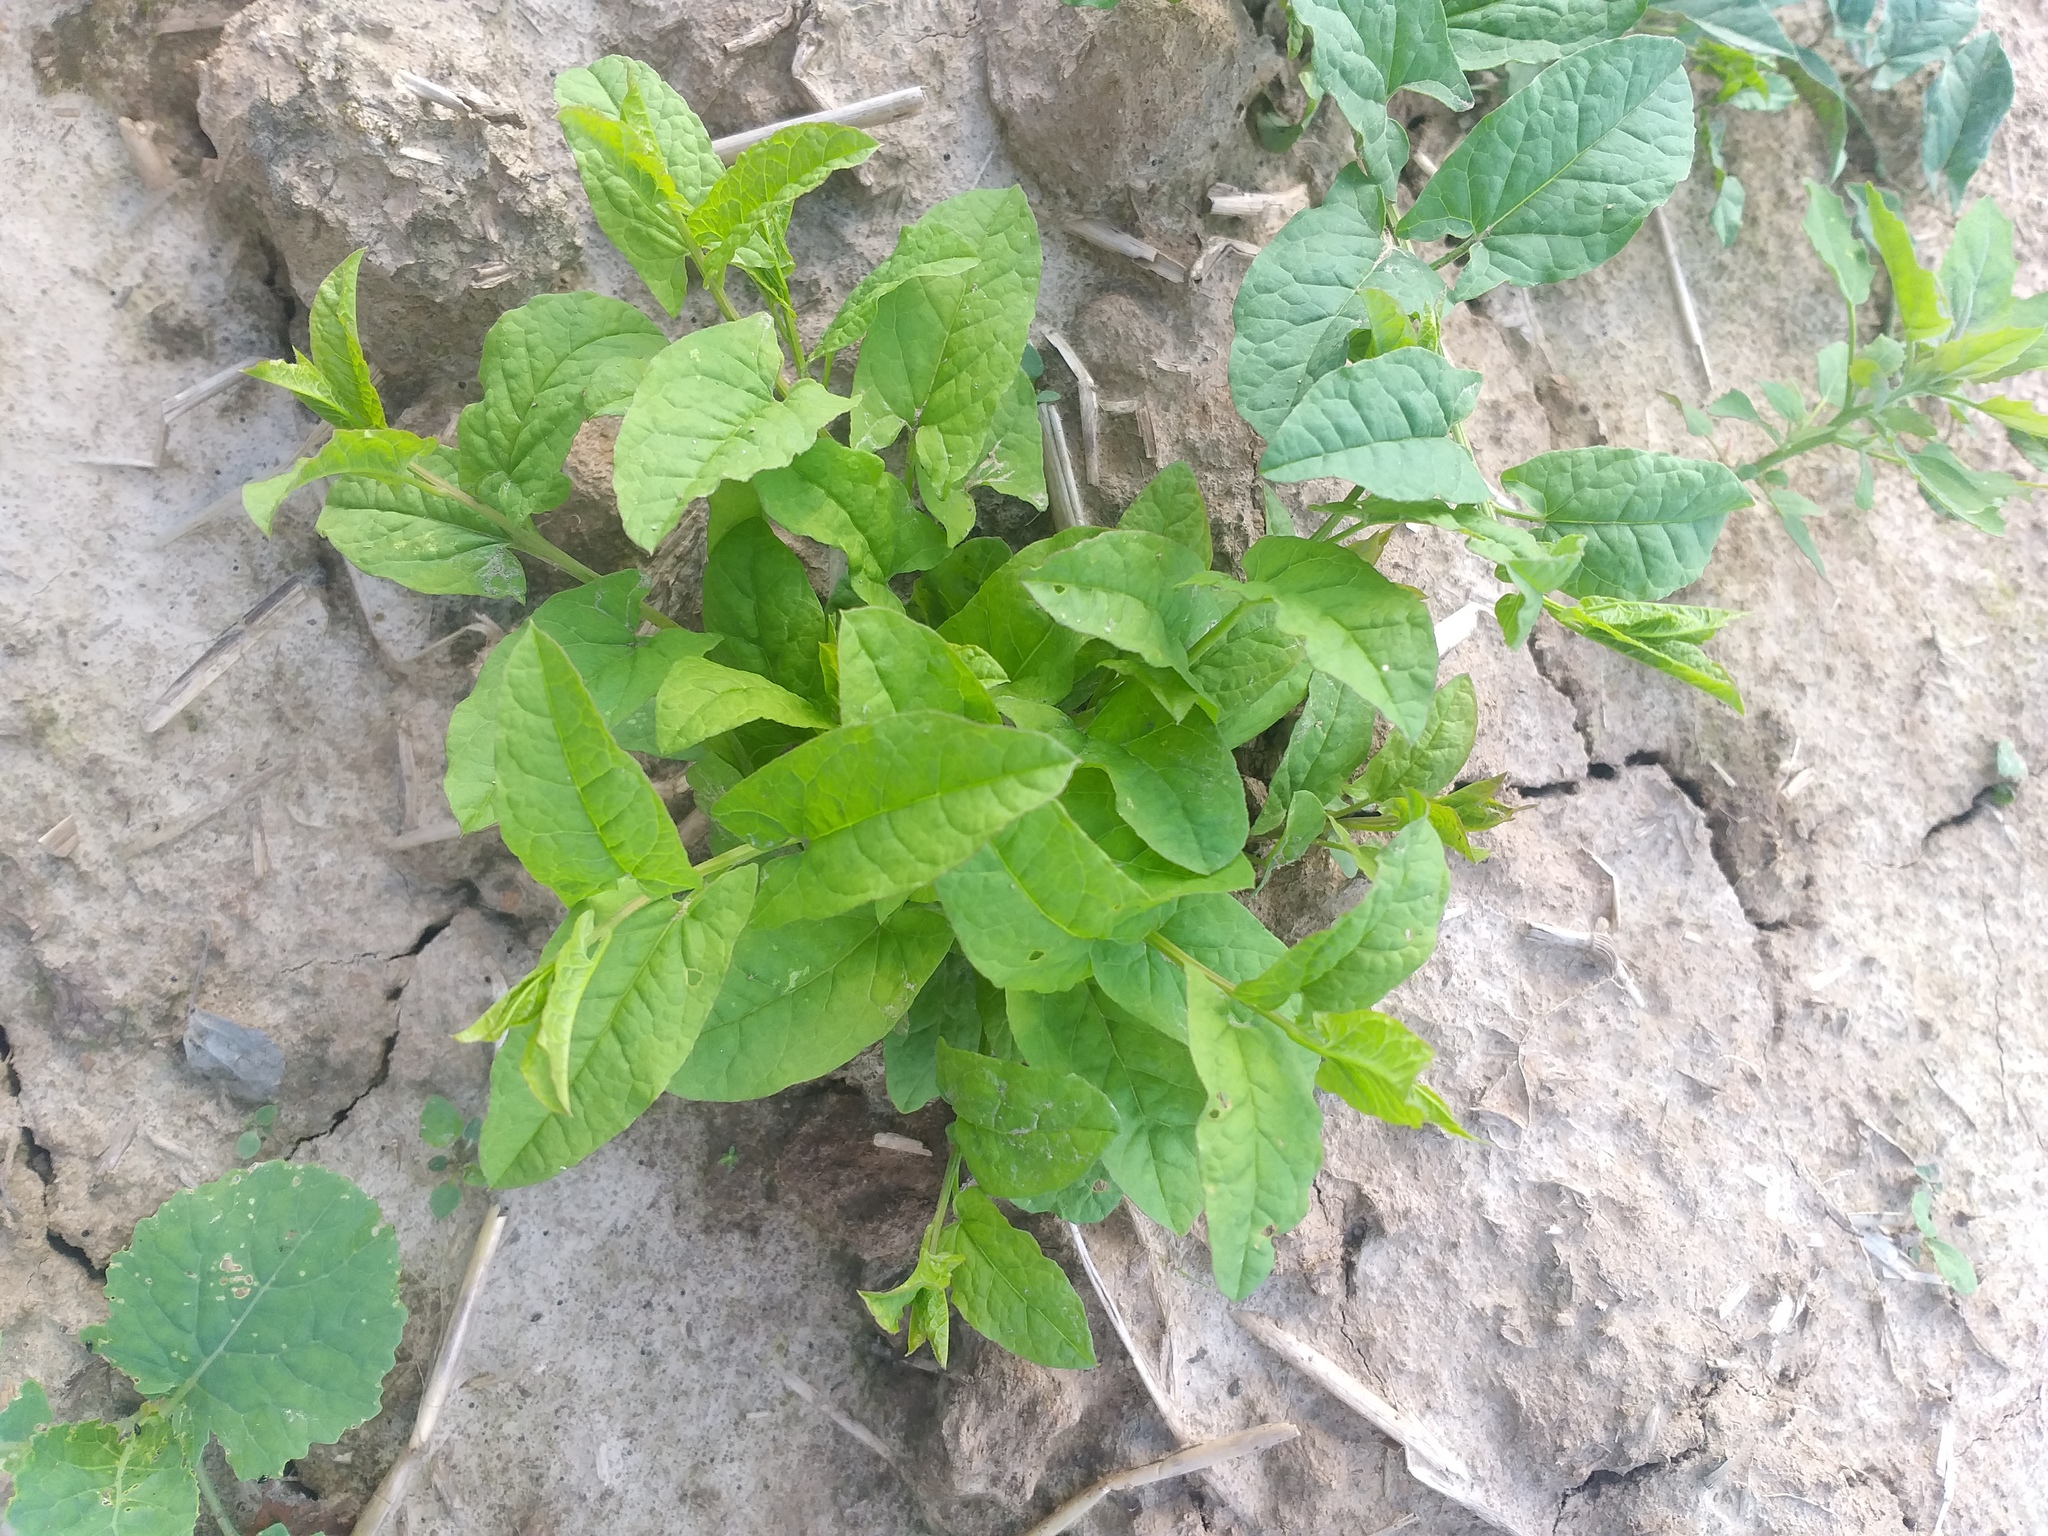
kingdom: Plantae
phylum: Tracheophyta
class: Magnoliopsida
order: Solanales
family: Convolvulaceae
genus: Convolvulus
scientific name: Convolvulus arvensis
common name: Field bindweed
